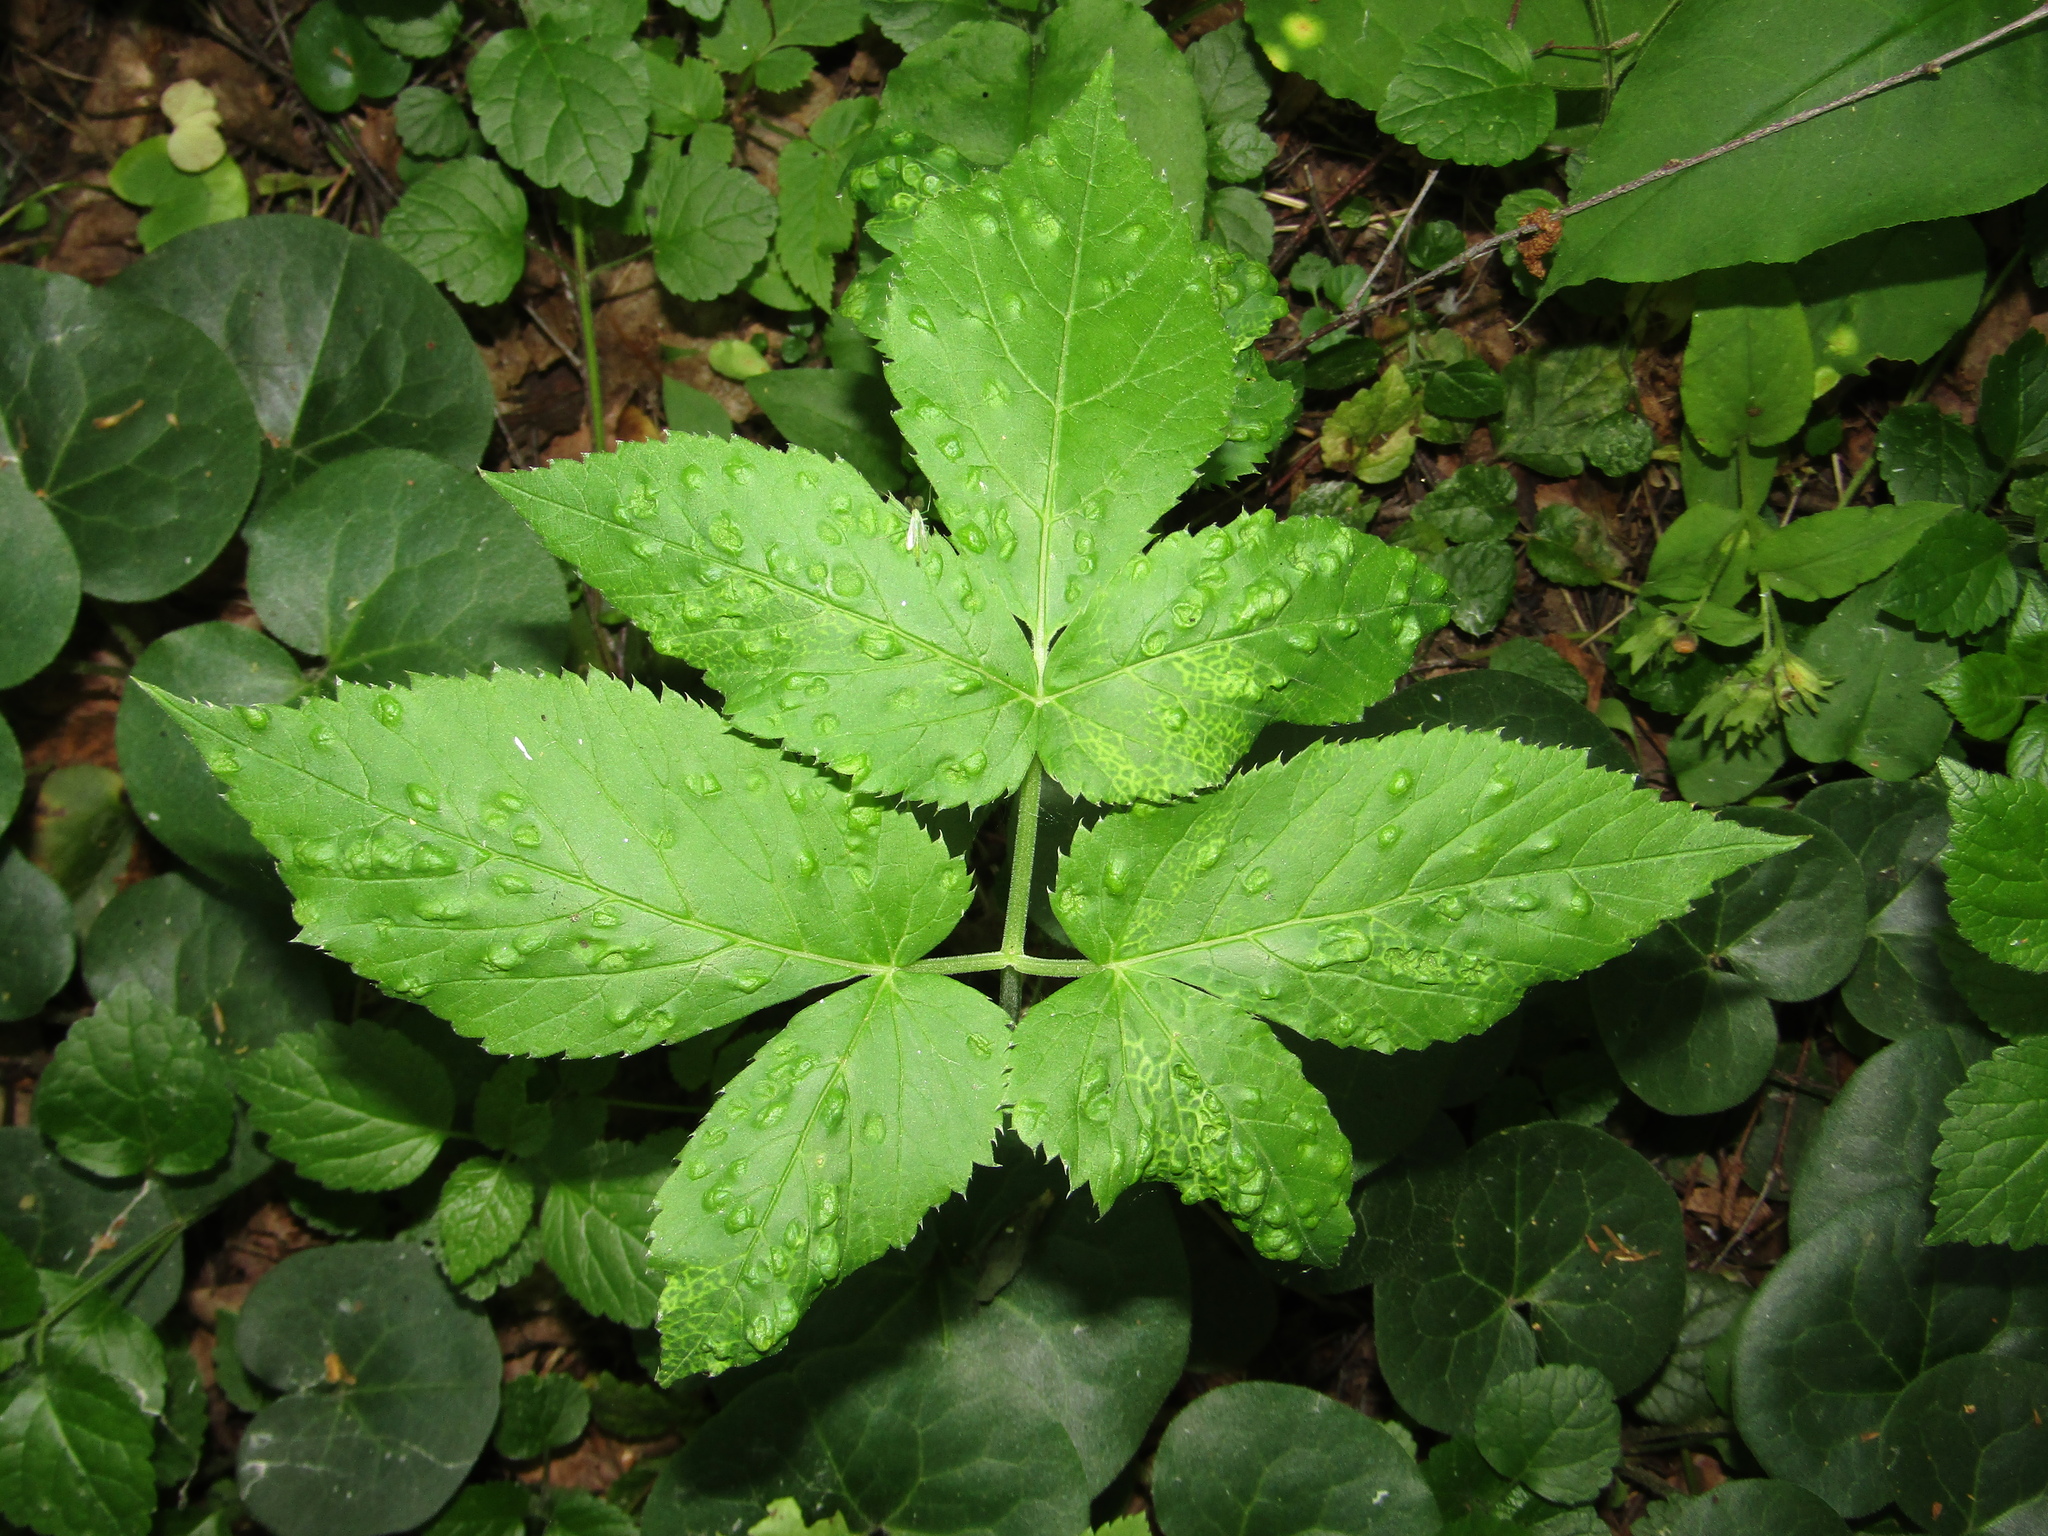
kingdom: Plantae
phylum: Tracheophyta
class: Magnoliopsida
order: Apiales
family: Apiaceae
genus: Aegopodium
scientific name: Aegopodium podagraria
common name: Ground-elder
